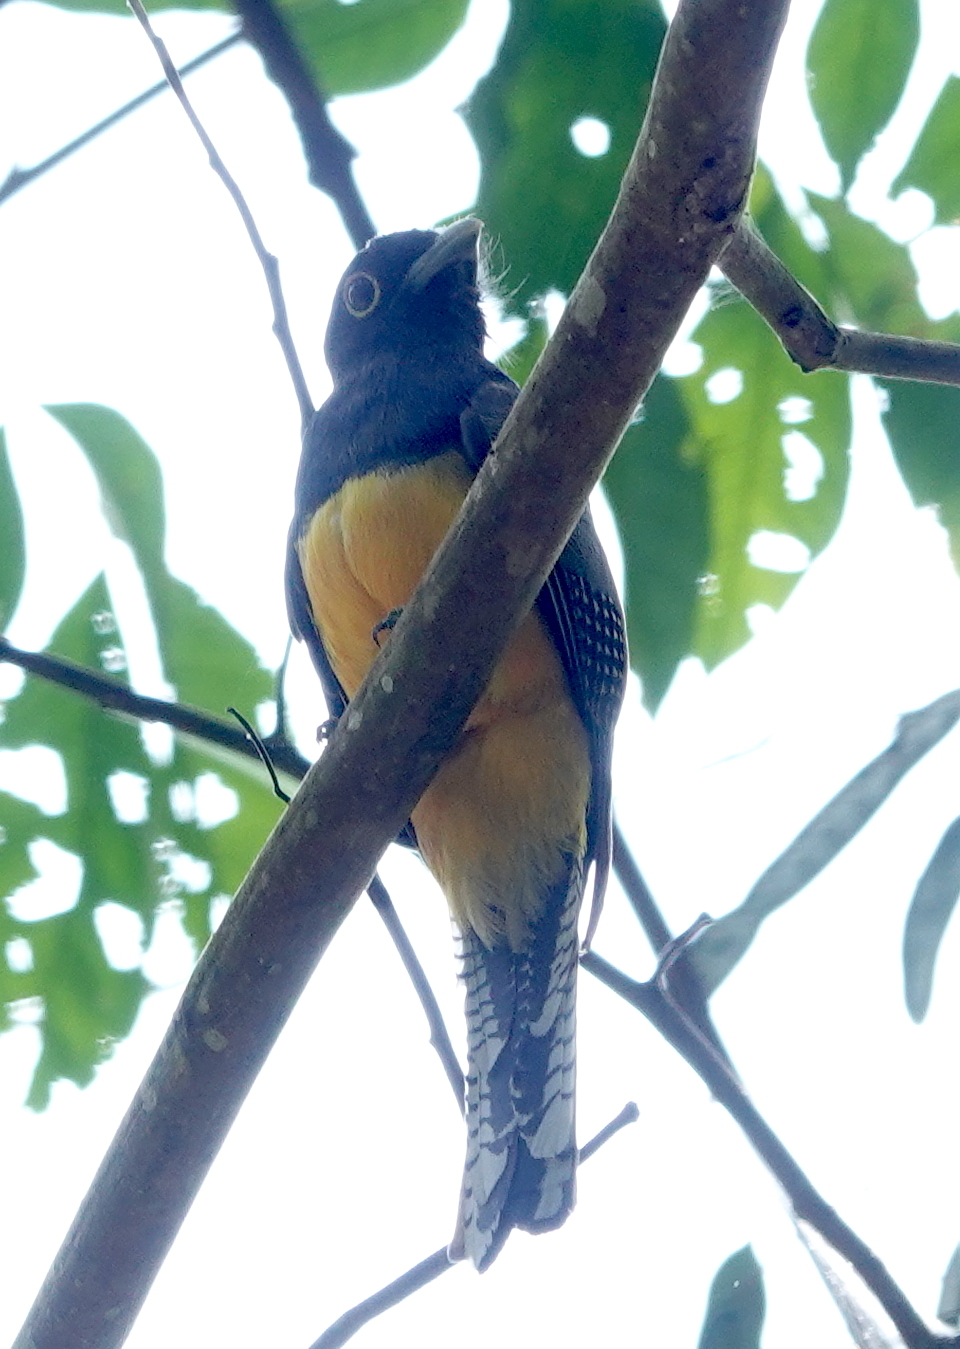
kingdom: Animalia
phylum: Chordata
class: Aves
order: Trogoniformes
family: Trogonidae
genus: Trogon
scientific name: Trogon caligatus
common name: Gartered trogon
